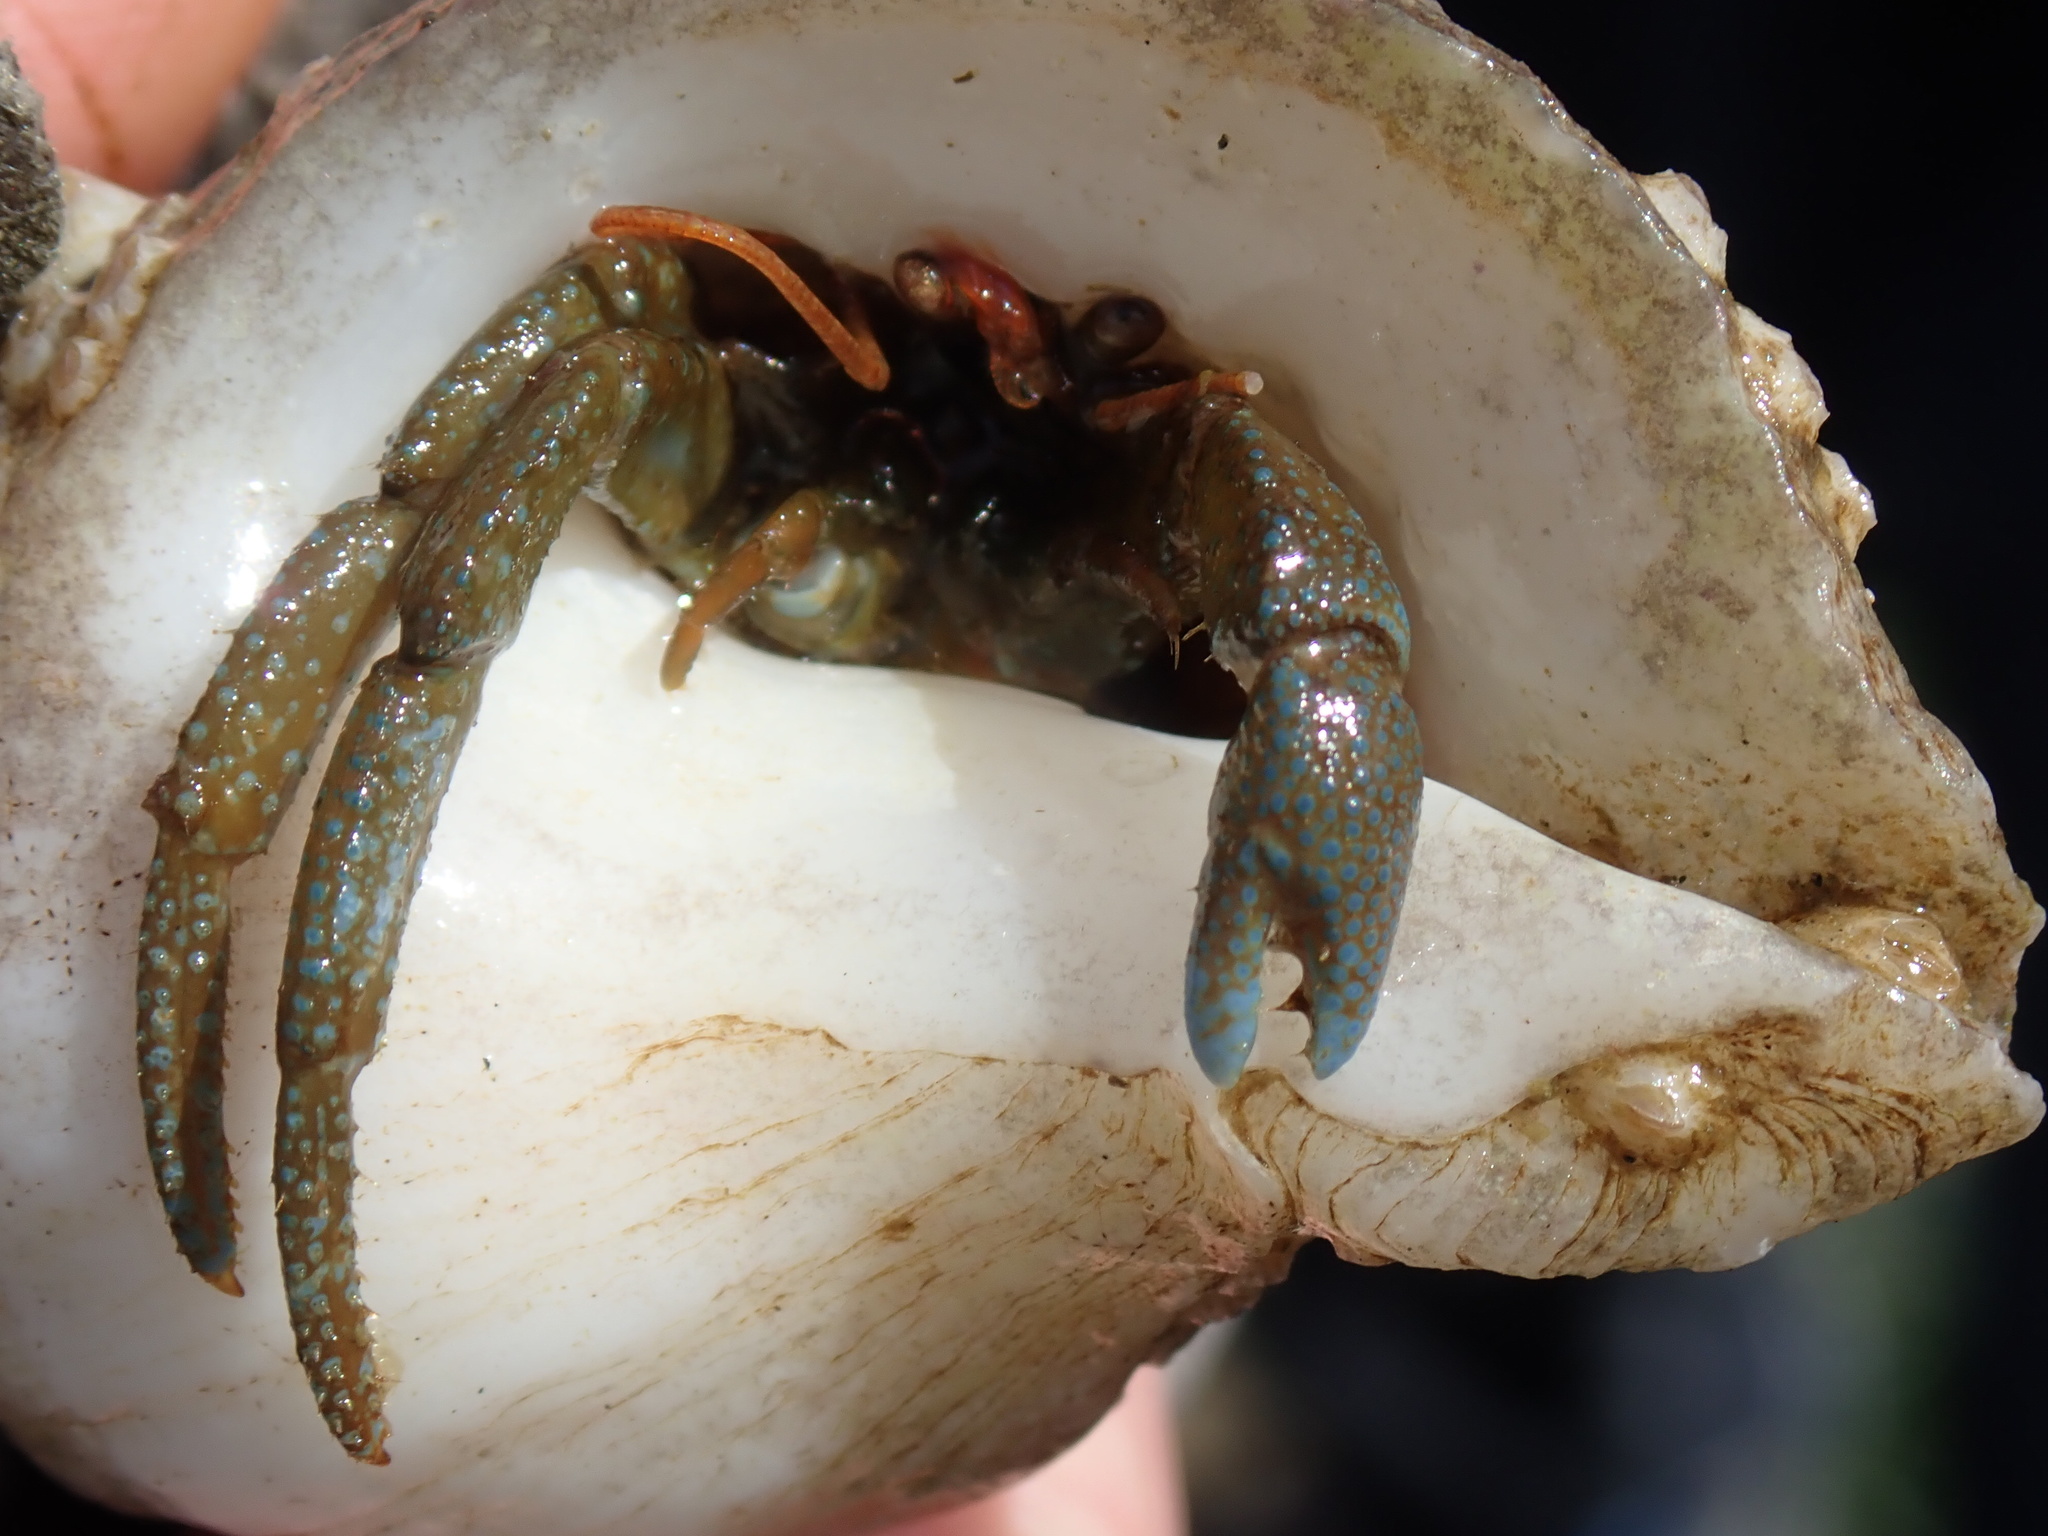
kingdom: Animalia
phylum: Arthropoda
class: Malacostraca
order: Decapoda
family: Paguridae
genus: Pagurus
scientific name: Pagurus granosimanus
